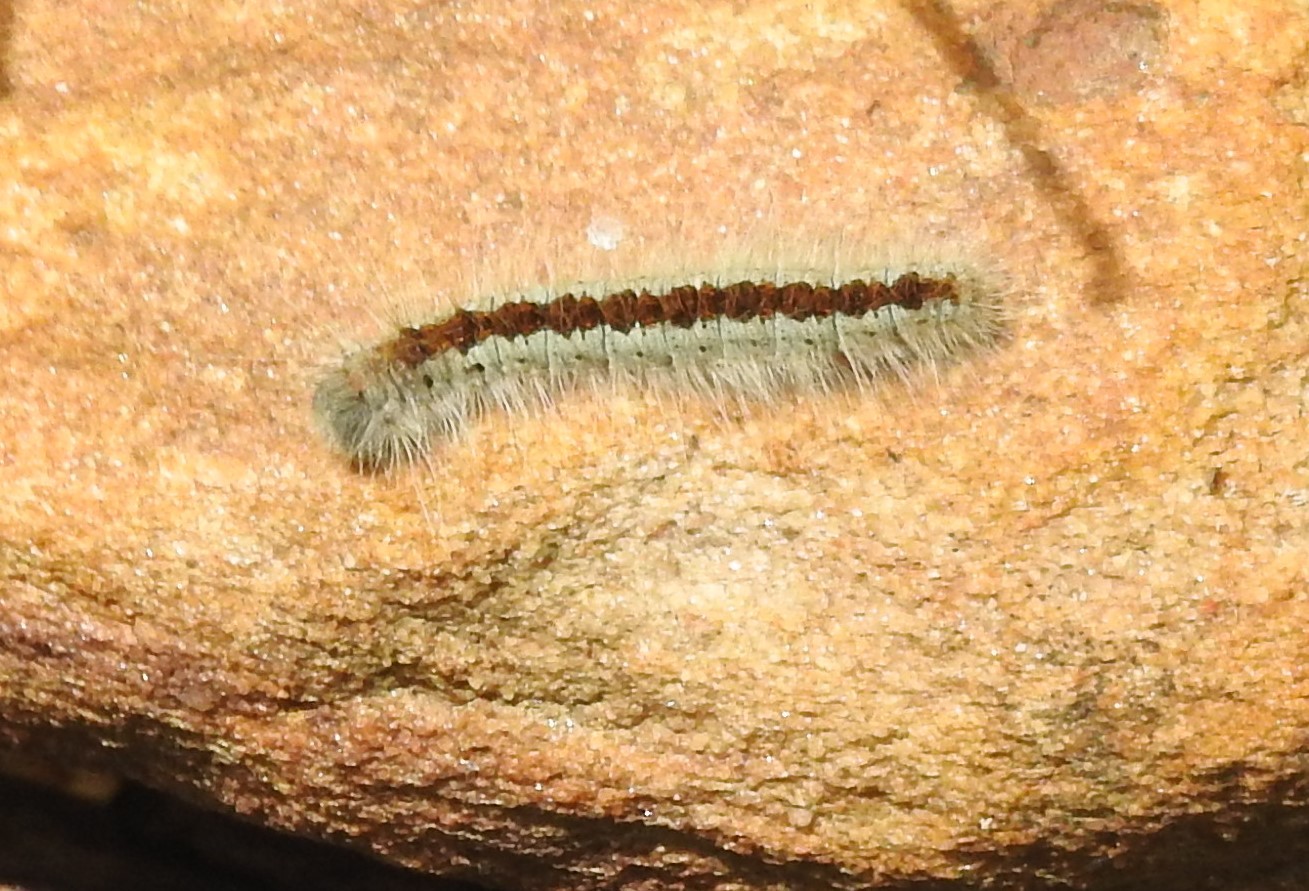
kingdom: Animalia
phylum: Arthropoda
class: Insecta
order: Lepidoptera
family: Lasiocampidae
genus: Malacosoma
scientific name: Malacosoma incurva
